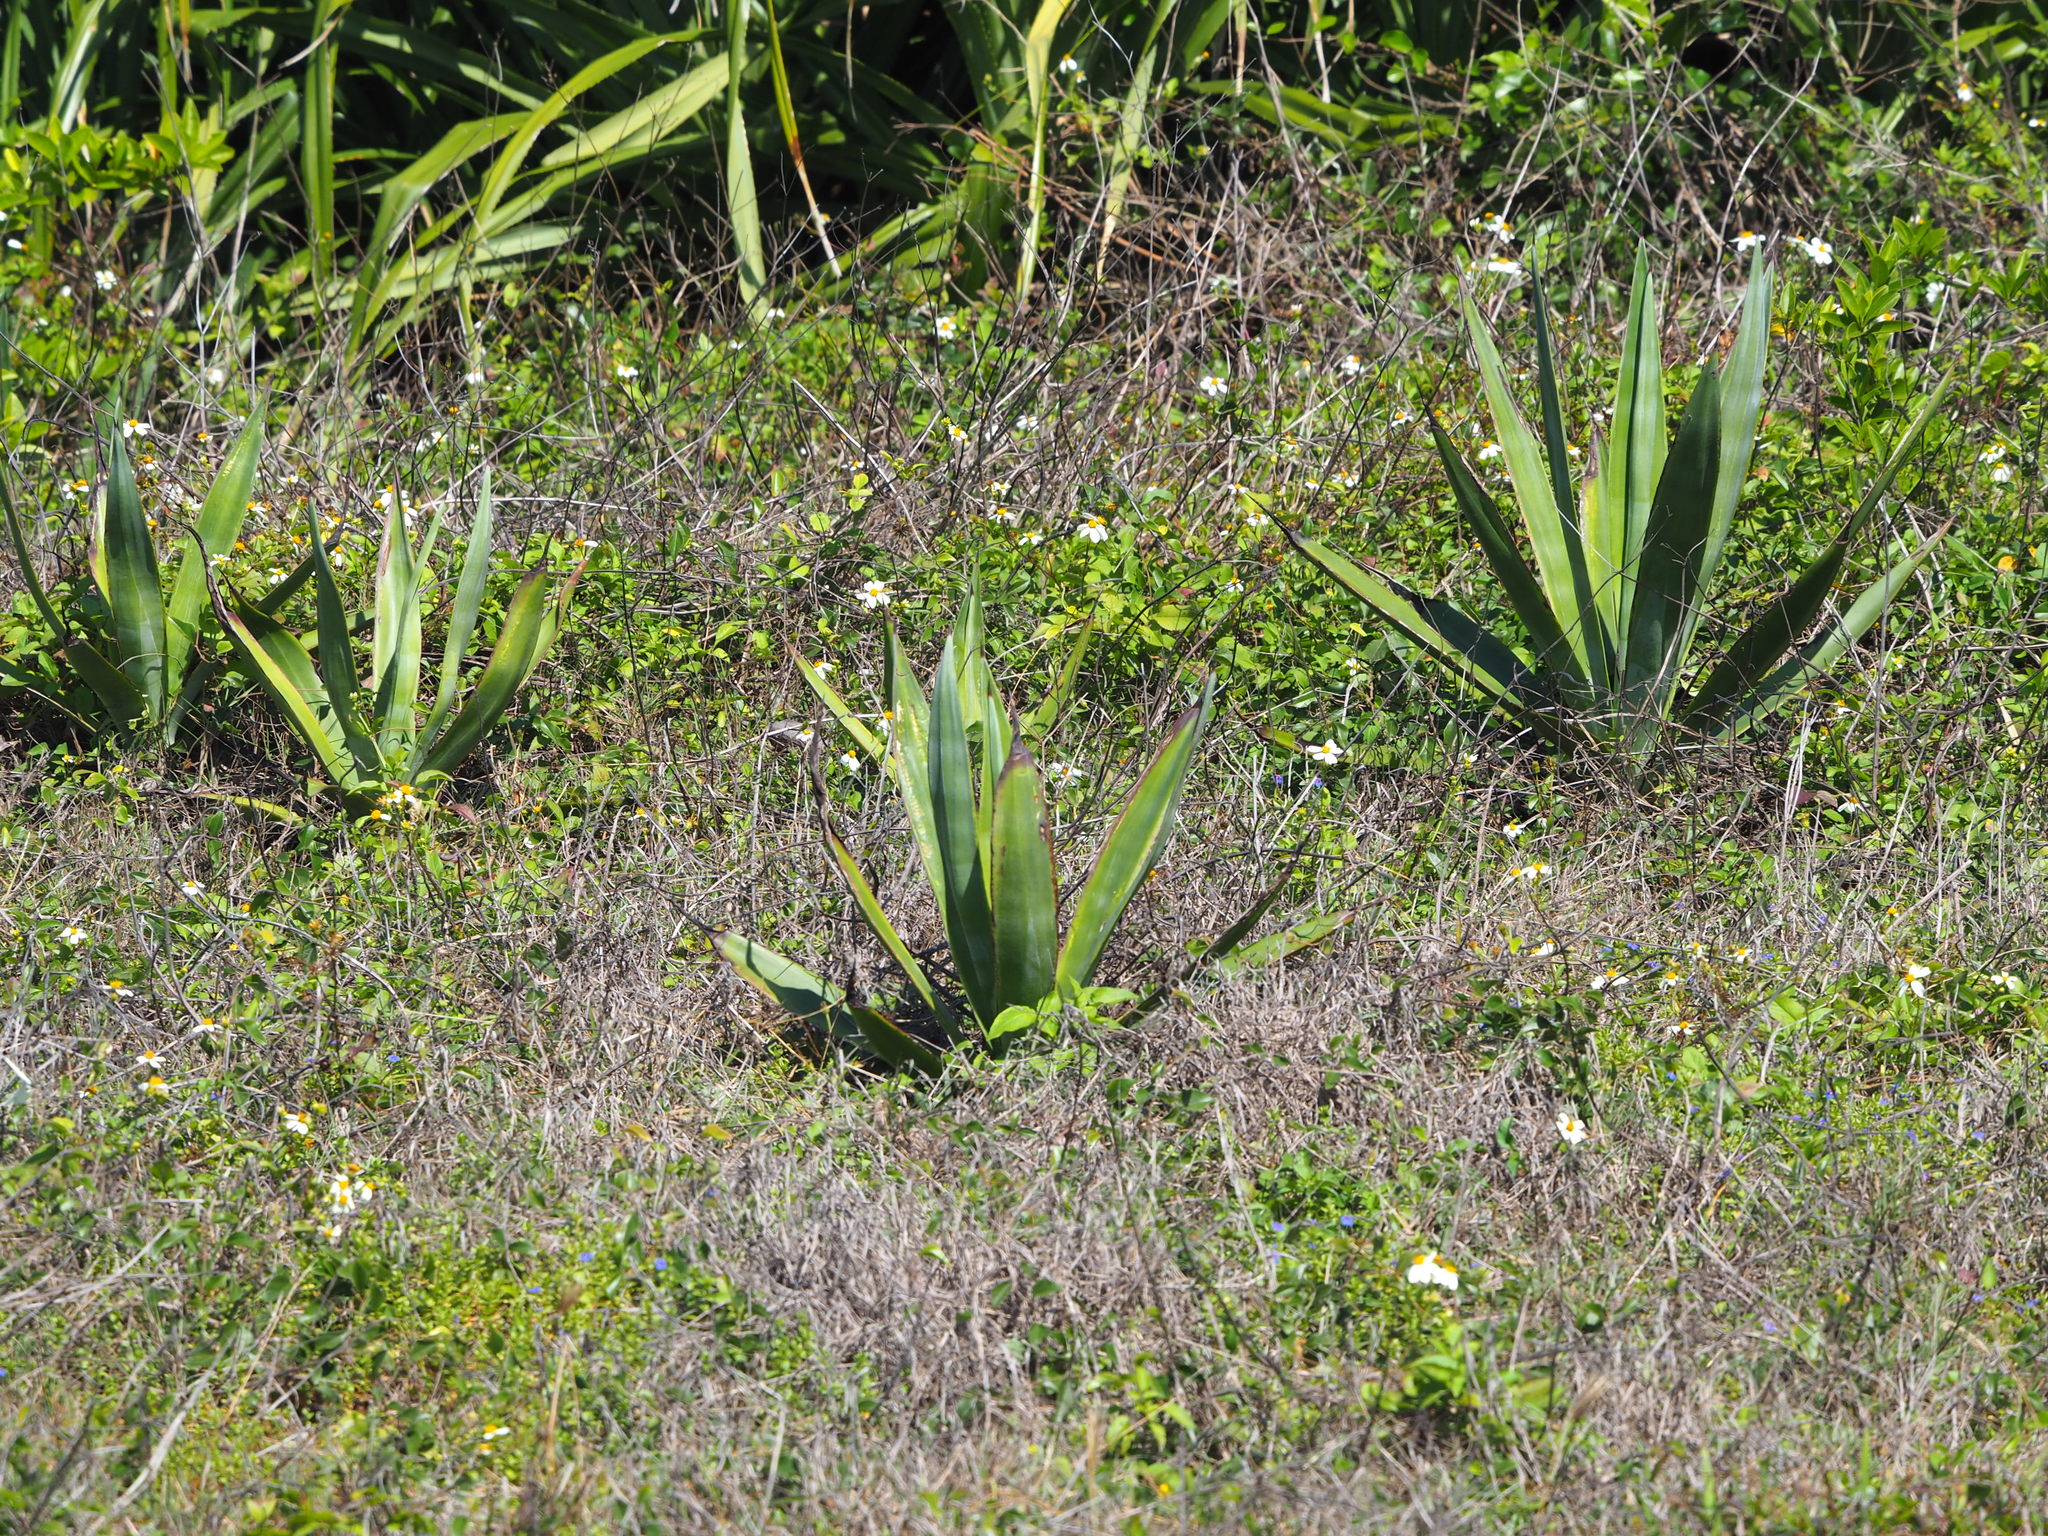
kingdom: Plantae
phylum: Tracheophyta
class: Liliopsida
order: Asparagales
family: Asparagaceae
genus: Agave
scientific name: Agave sisalana
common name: Sisal hemp
